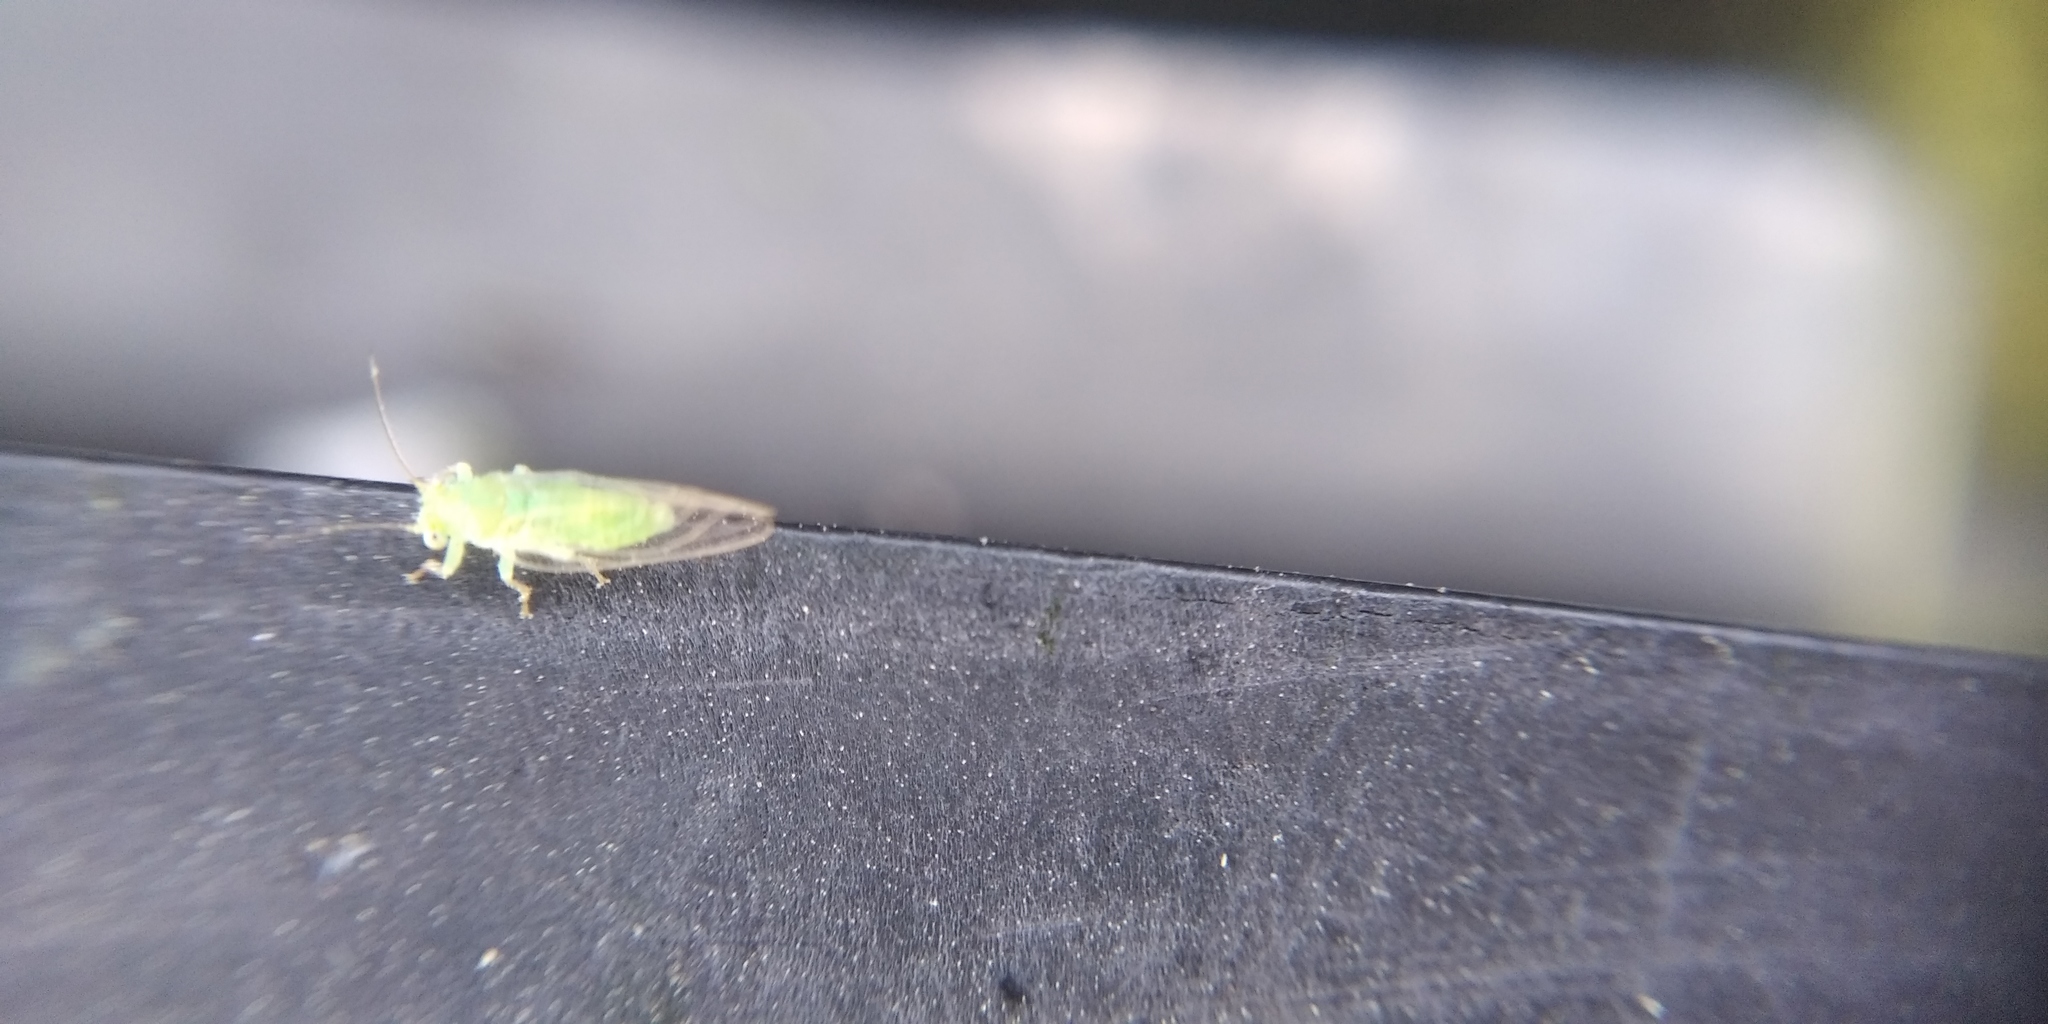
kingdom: Animalia
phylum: Arthropoda
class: Insecta
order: Hemiptera
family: Psyllidae
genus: Cacopsylla
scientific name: Cacopsylla ulmi
